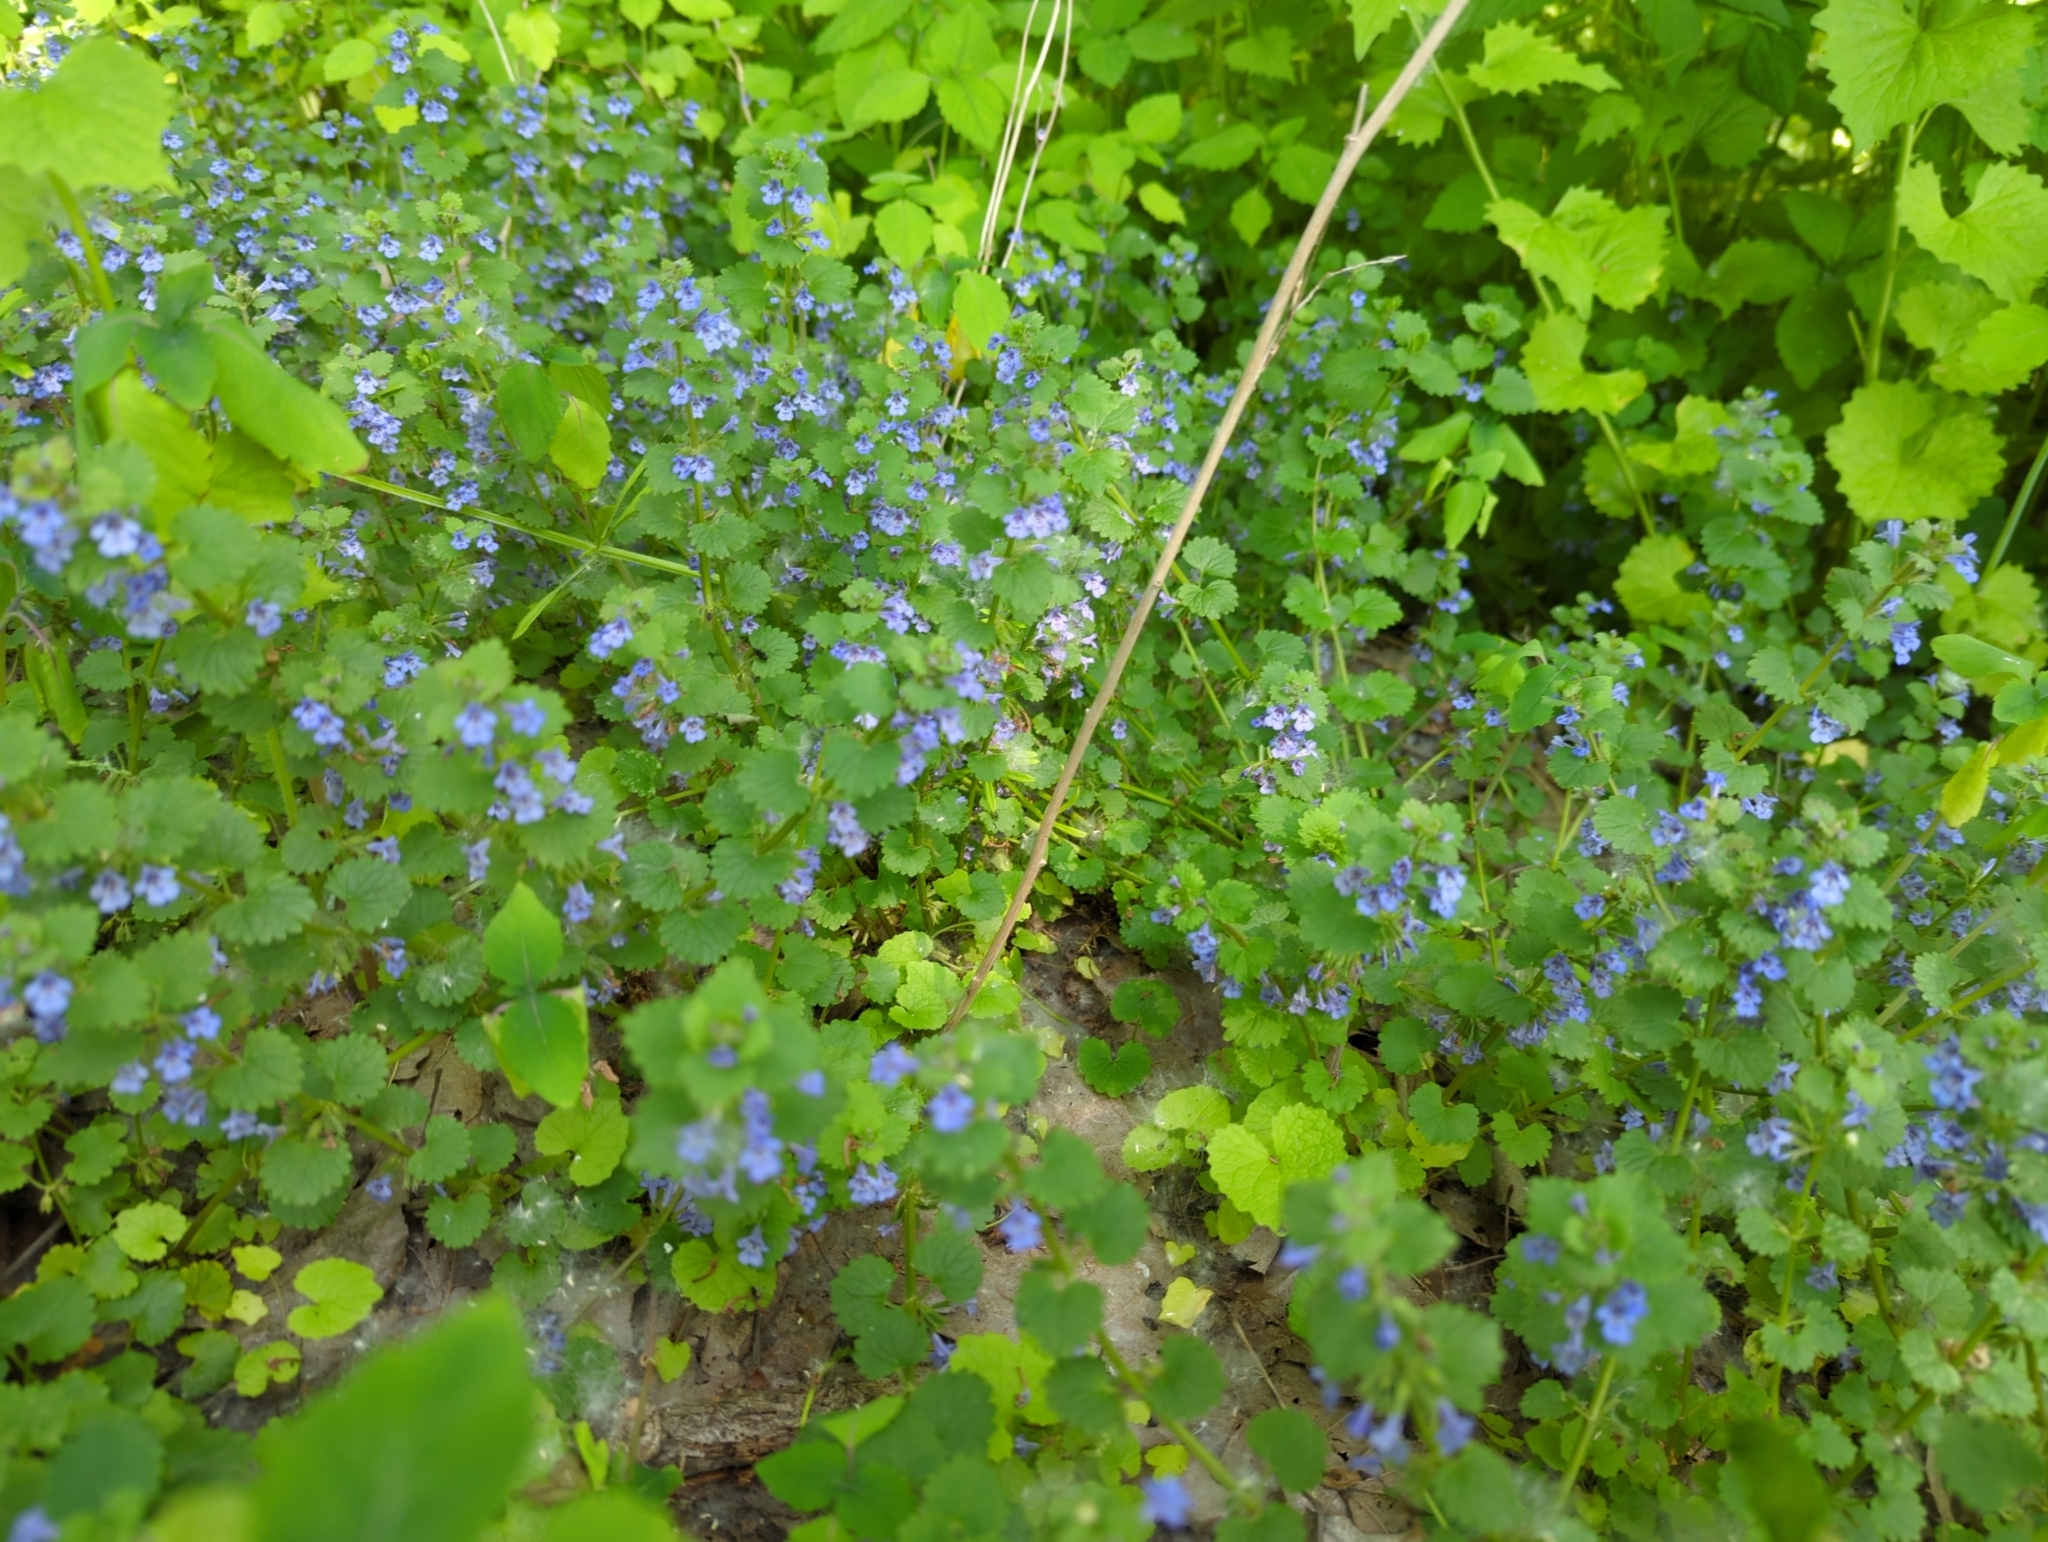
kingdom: Plantae
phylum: Tracheophyta
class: Magnoliopsida
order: Lamiales
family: Lamiaceae
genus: Glechoma
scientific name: Glechoma hederacea
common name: Ground ivy
